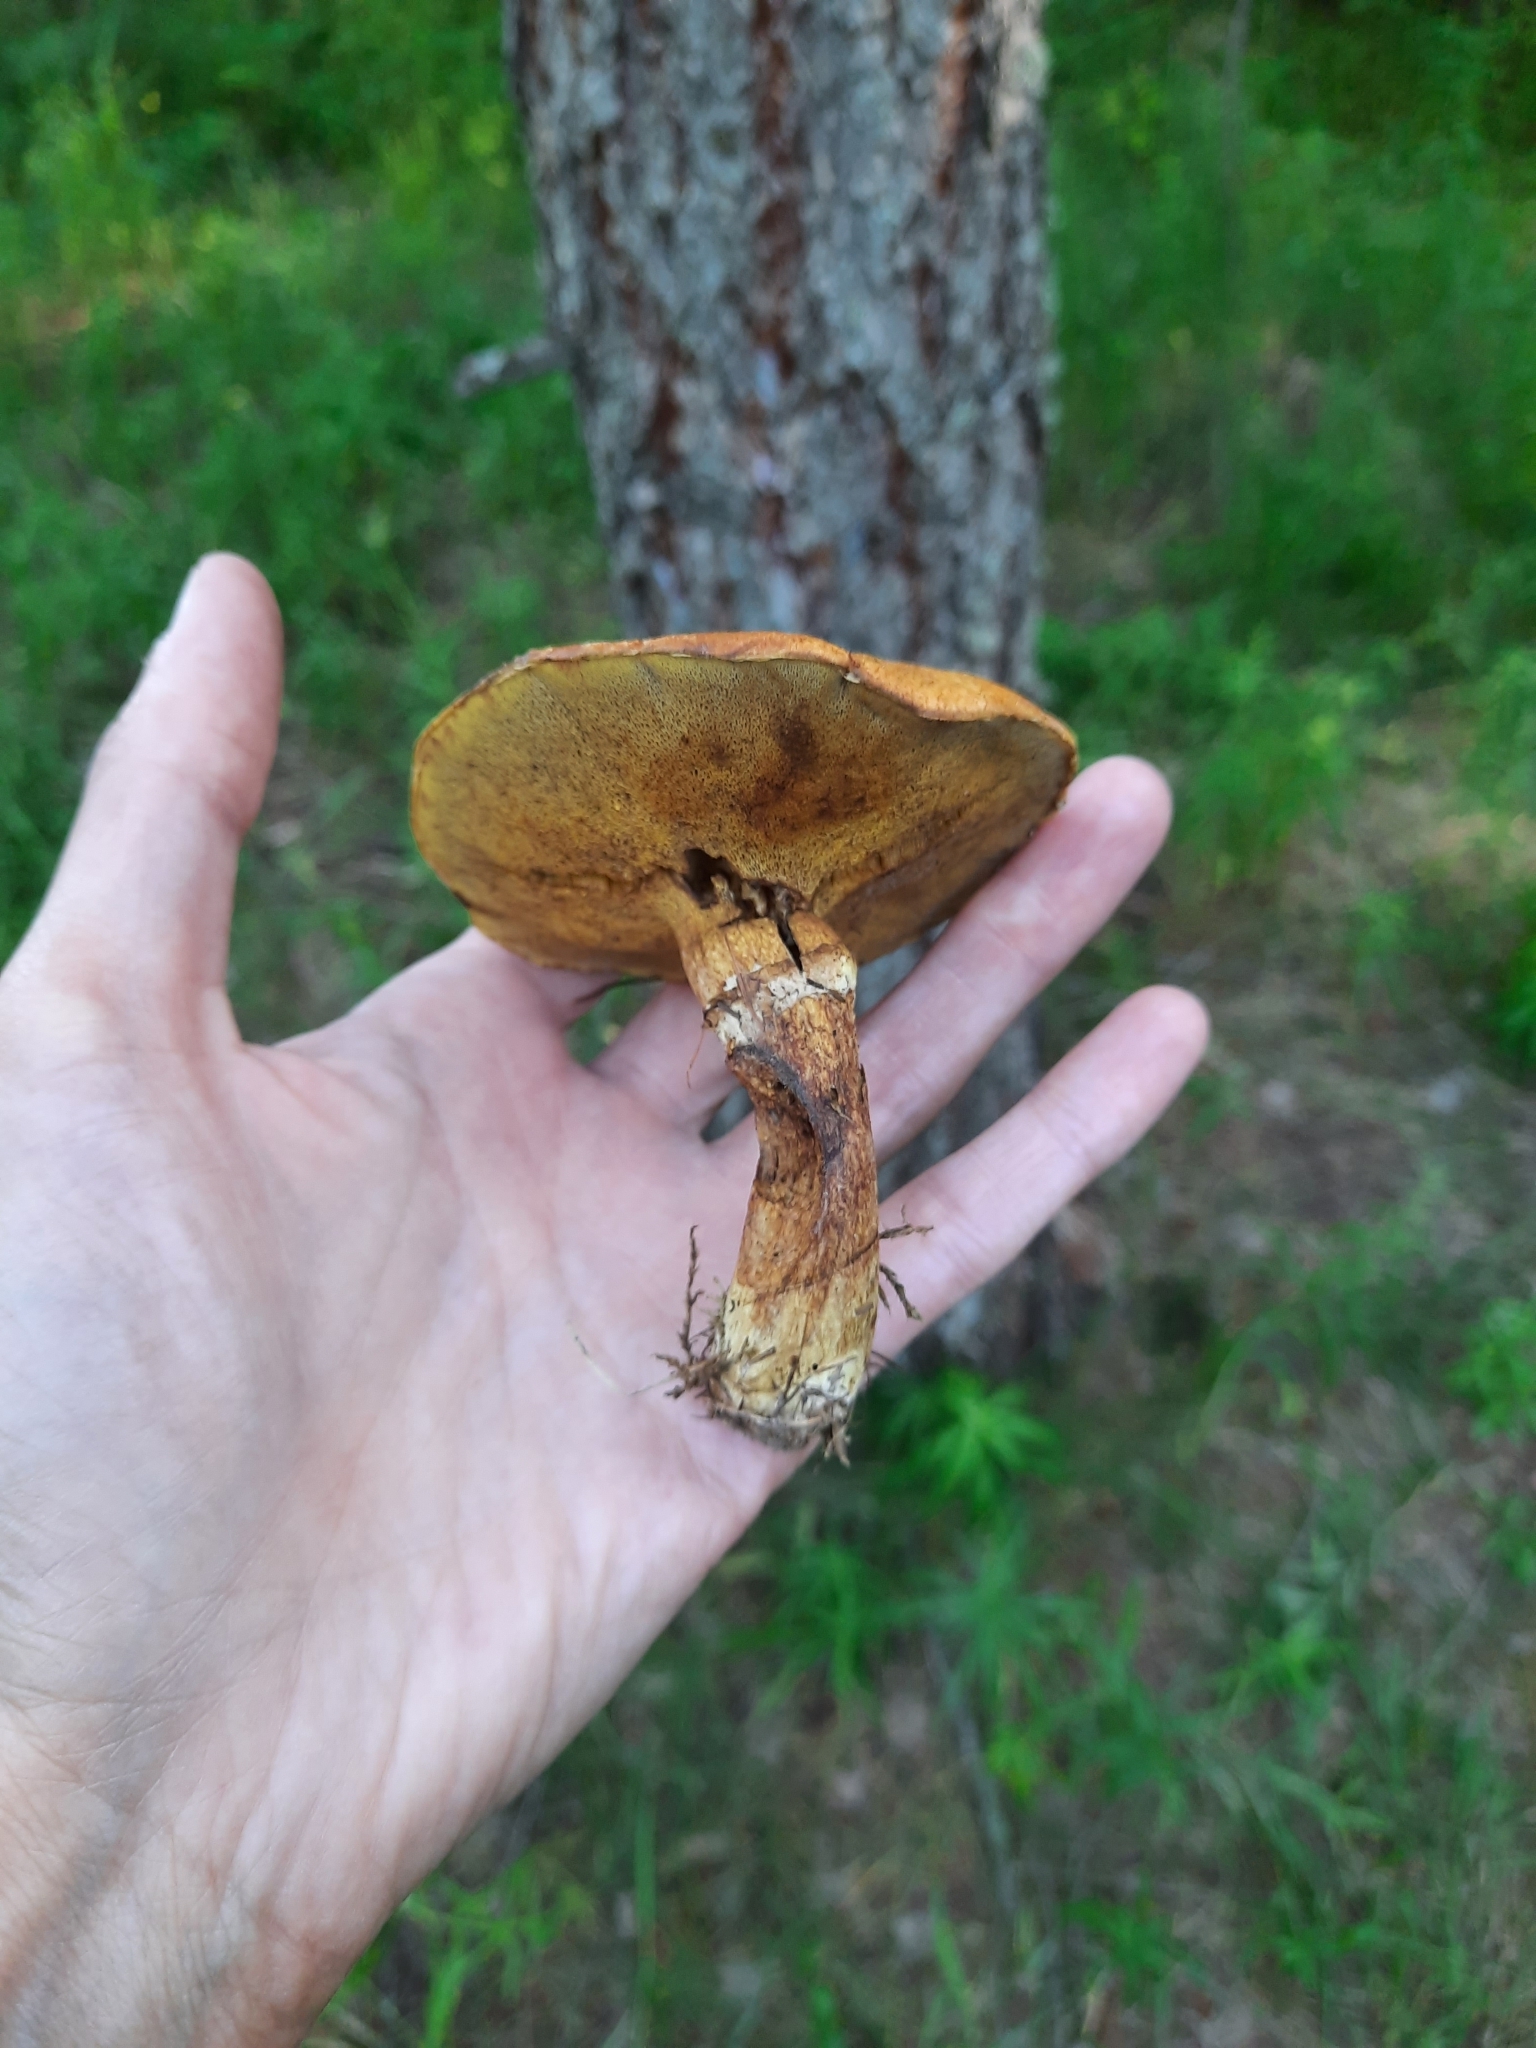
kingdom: Fungi
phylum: Basidiomycota
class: Agaricomycetes
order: Boletales
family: Suillaceae
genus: Suillus
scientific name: Suillus grevillei
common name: Larch bolete
